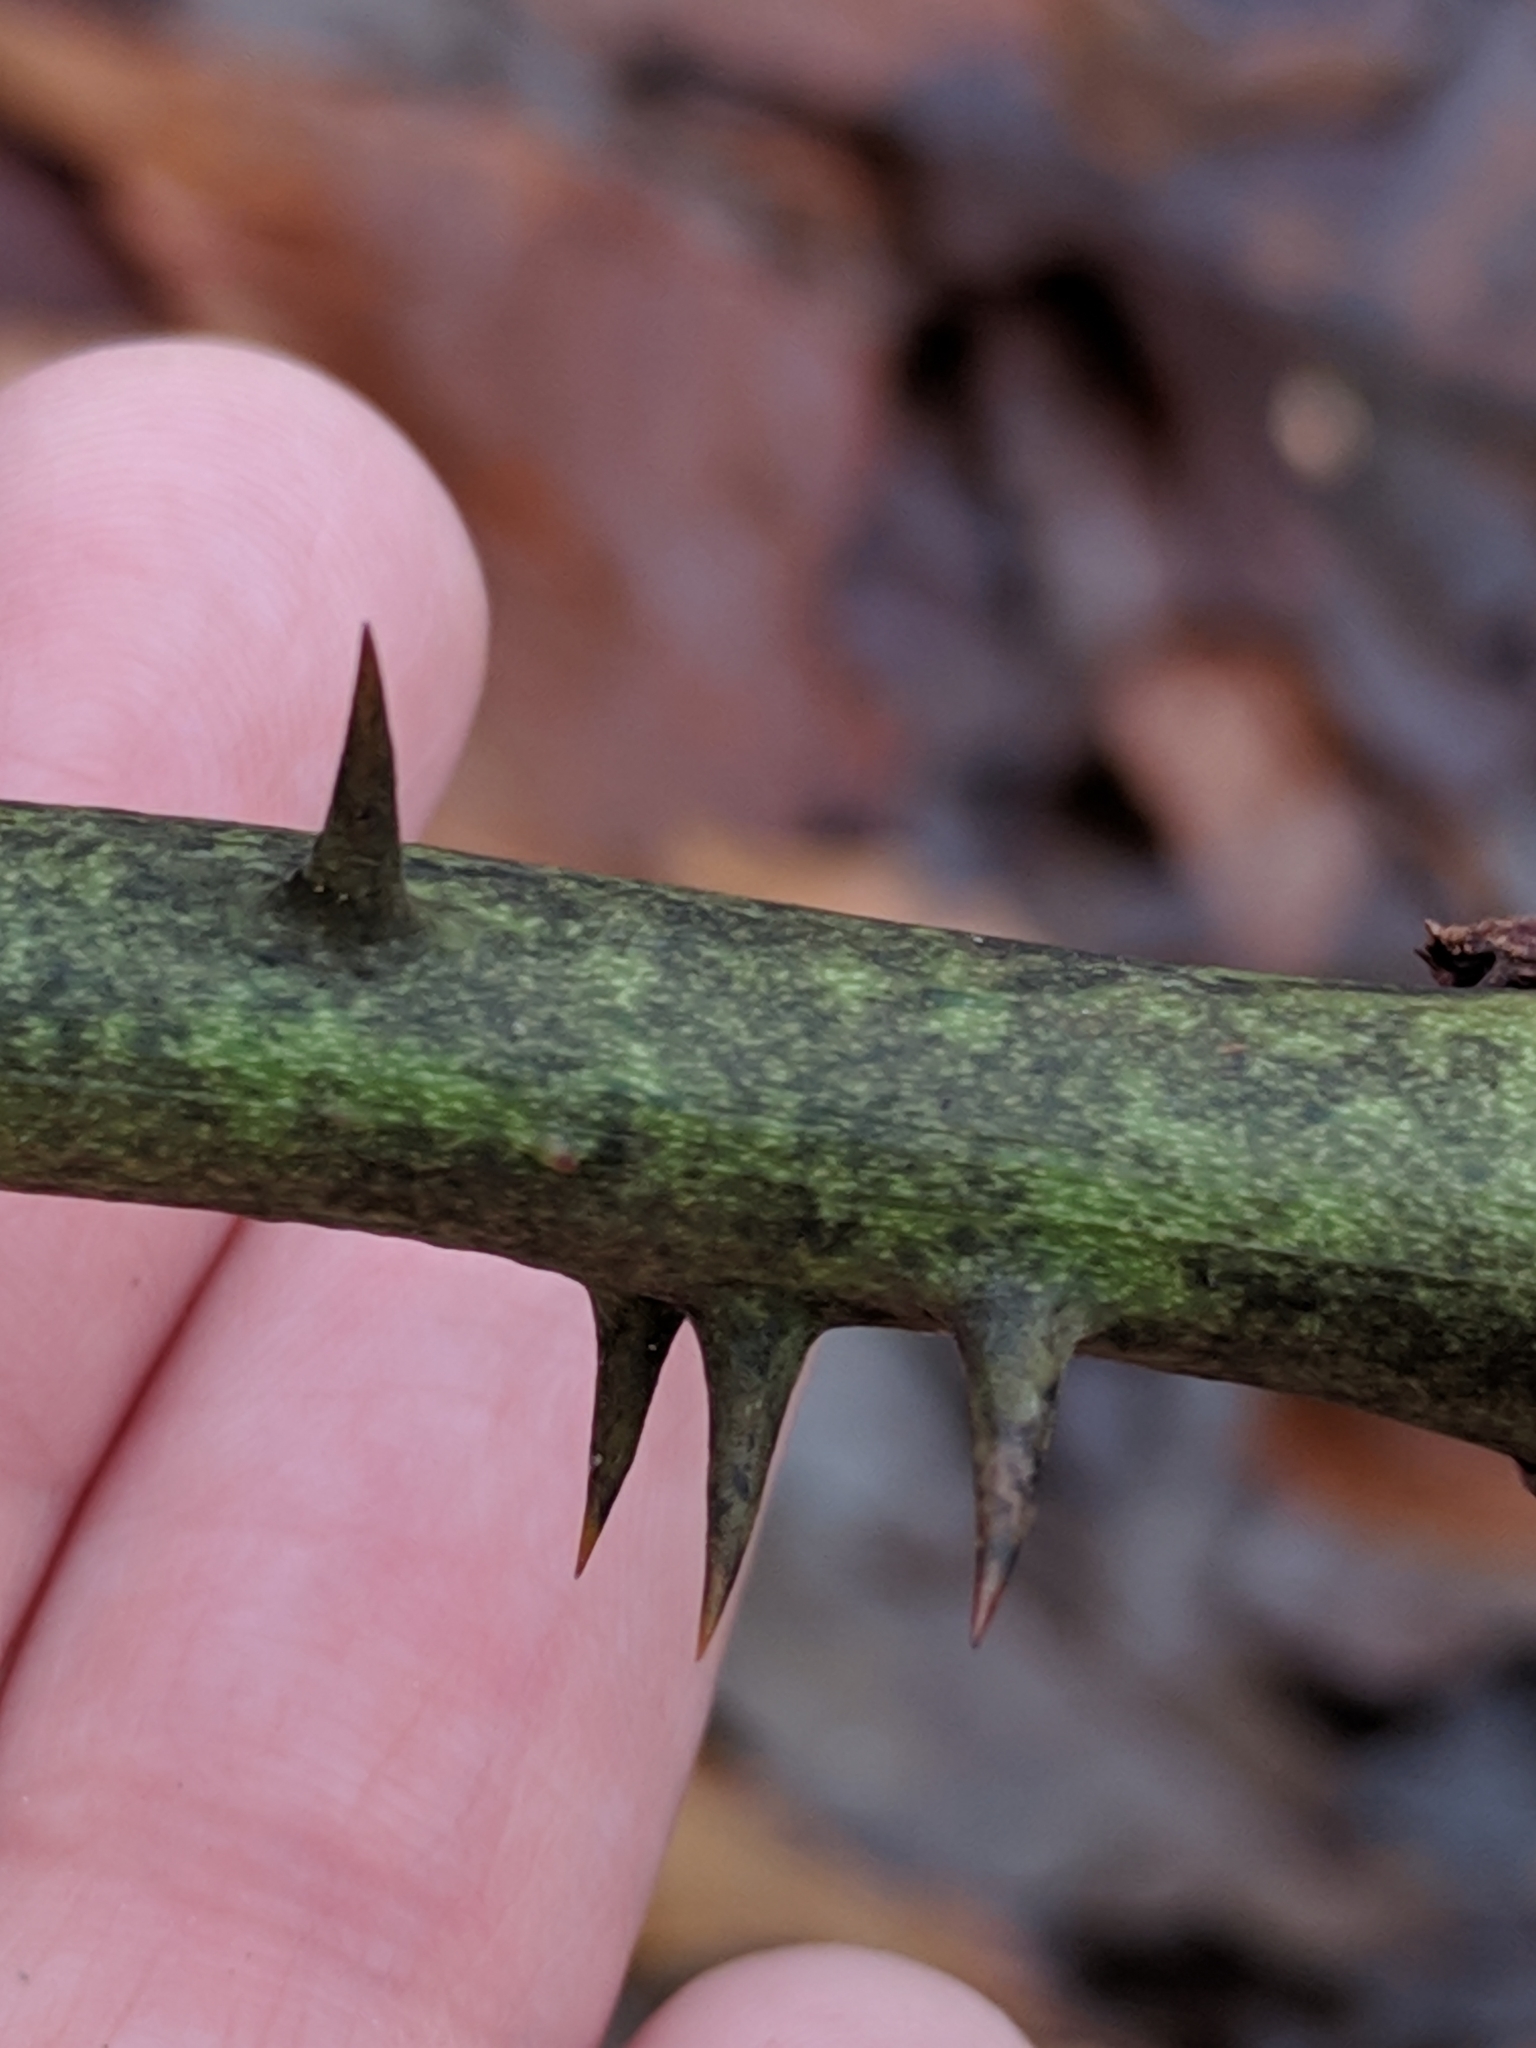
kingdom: Plantae
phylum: Tracheophyta
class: Liliopsida
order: Liliales
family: Smilacaceae
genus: Smilax
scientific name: Smilax laurifolia
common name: Bamboovine
